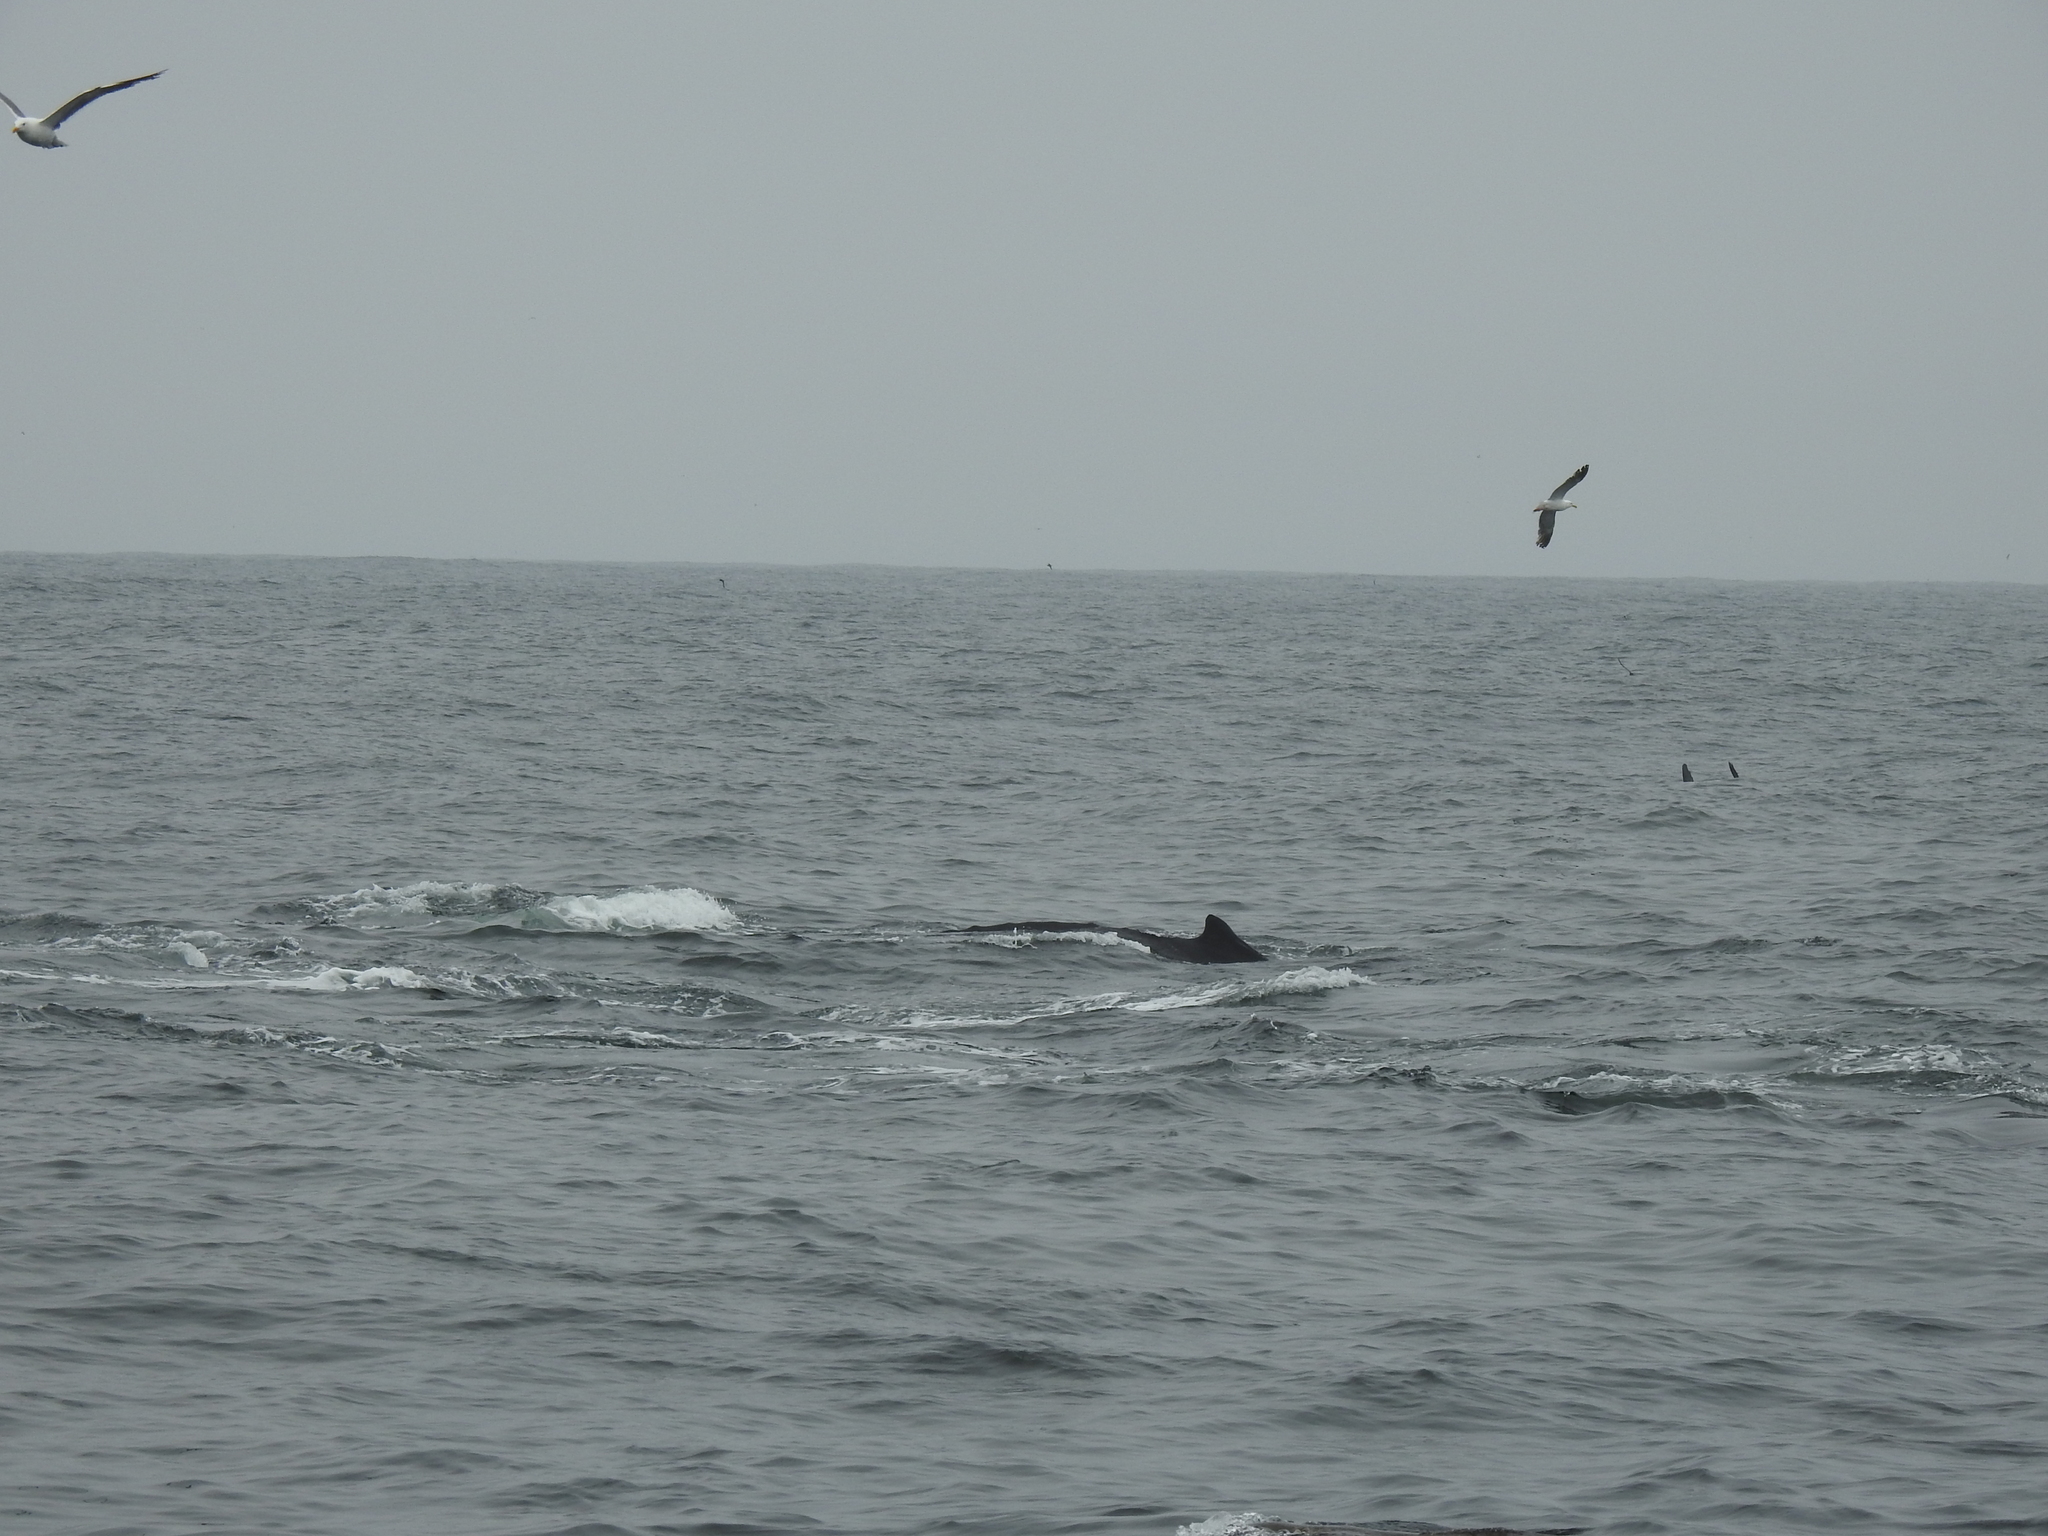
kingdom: Animalia
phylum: Chordata
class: Mammalia
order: Cetacea
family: Balaenopteridae
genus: Megaptera
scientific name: Megaptera novaeangliae
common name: Humpback whale
